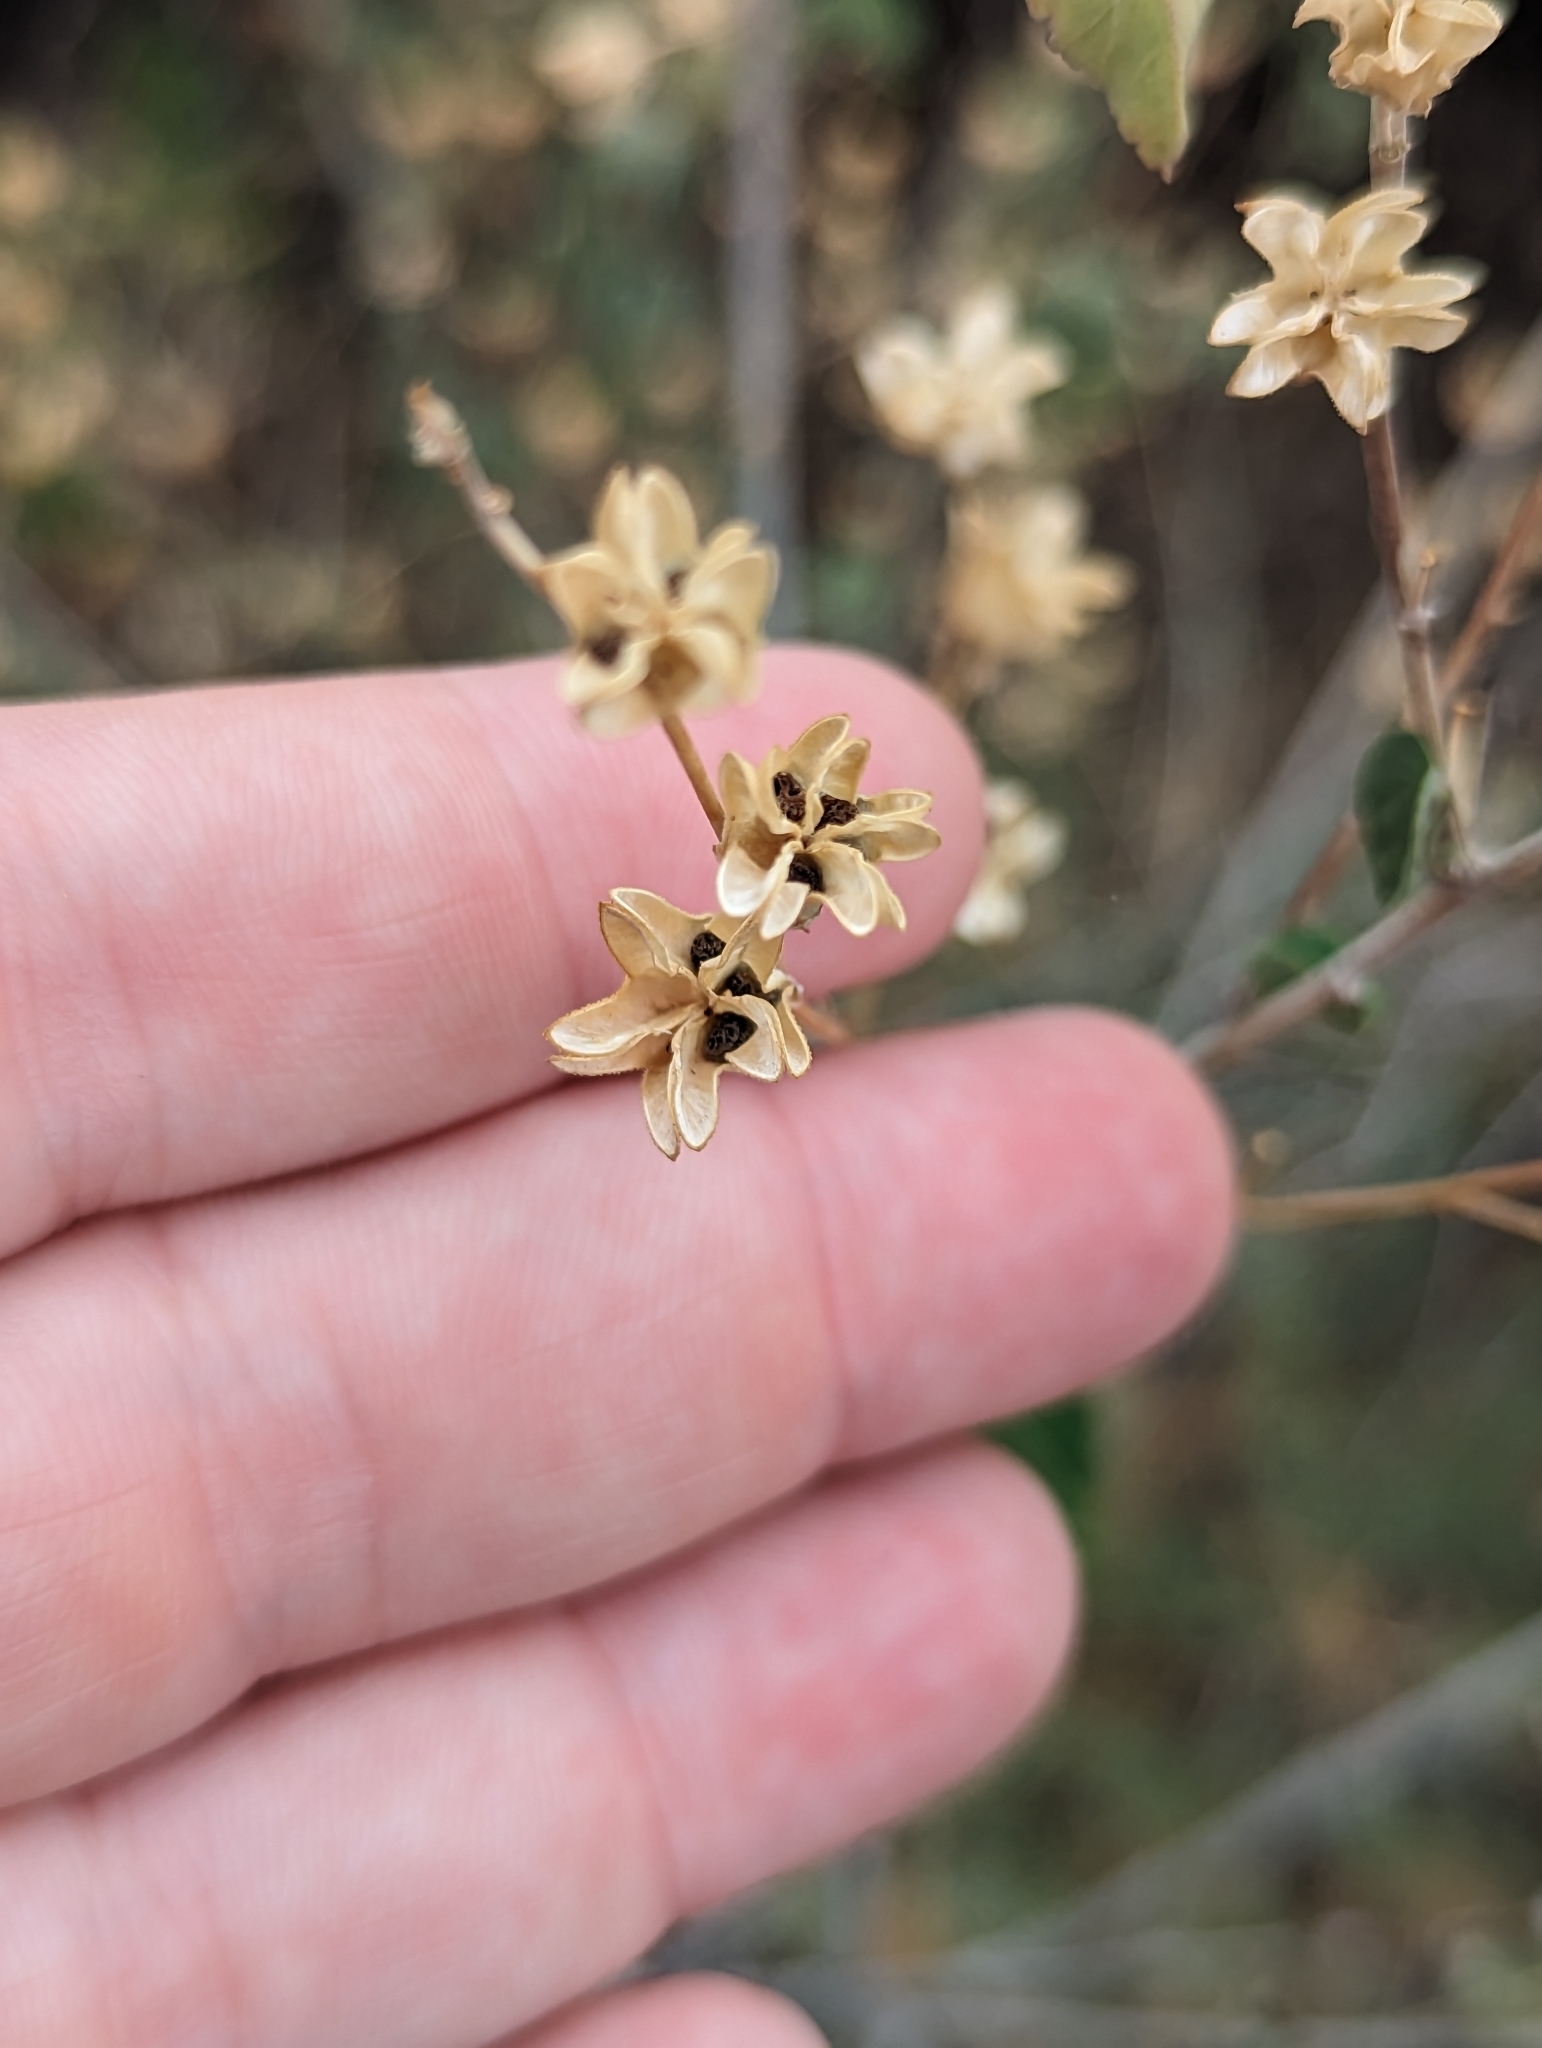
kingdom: Plantae
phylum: Tracheophyta
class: Magnoliopsida
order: Malvales
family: Malvaceae
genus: Abutilon
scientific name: Abutilon incanum
